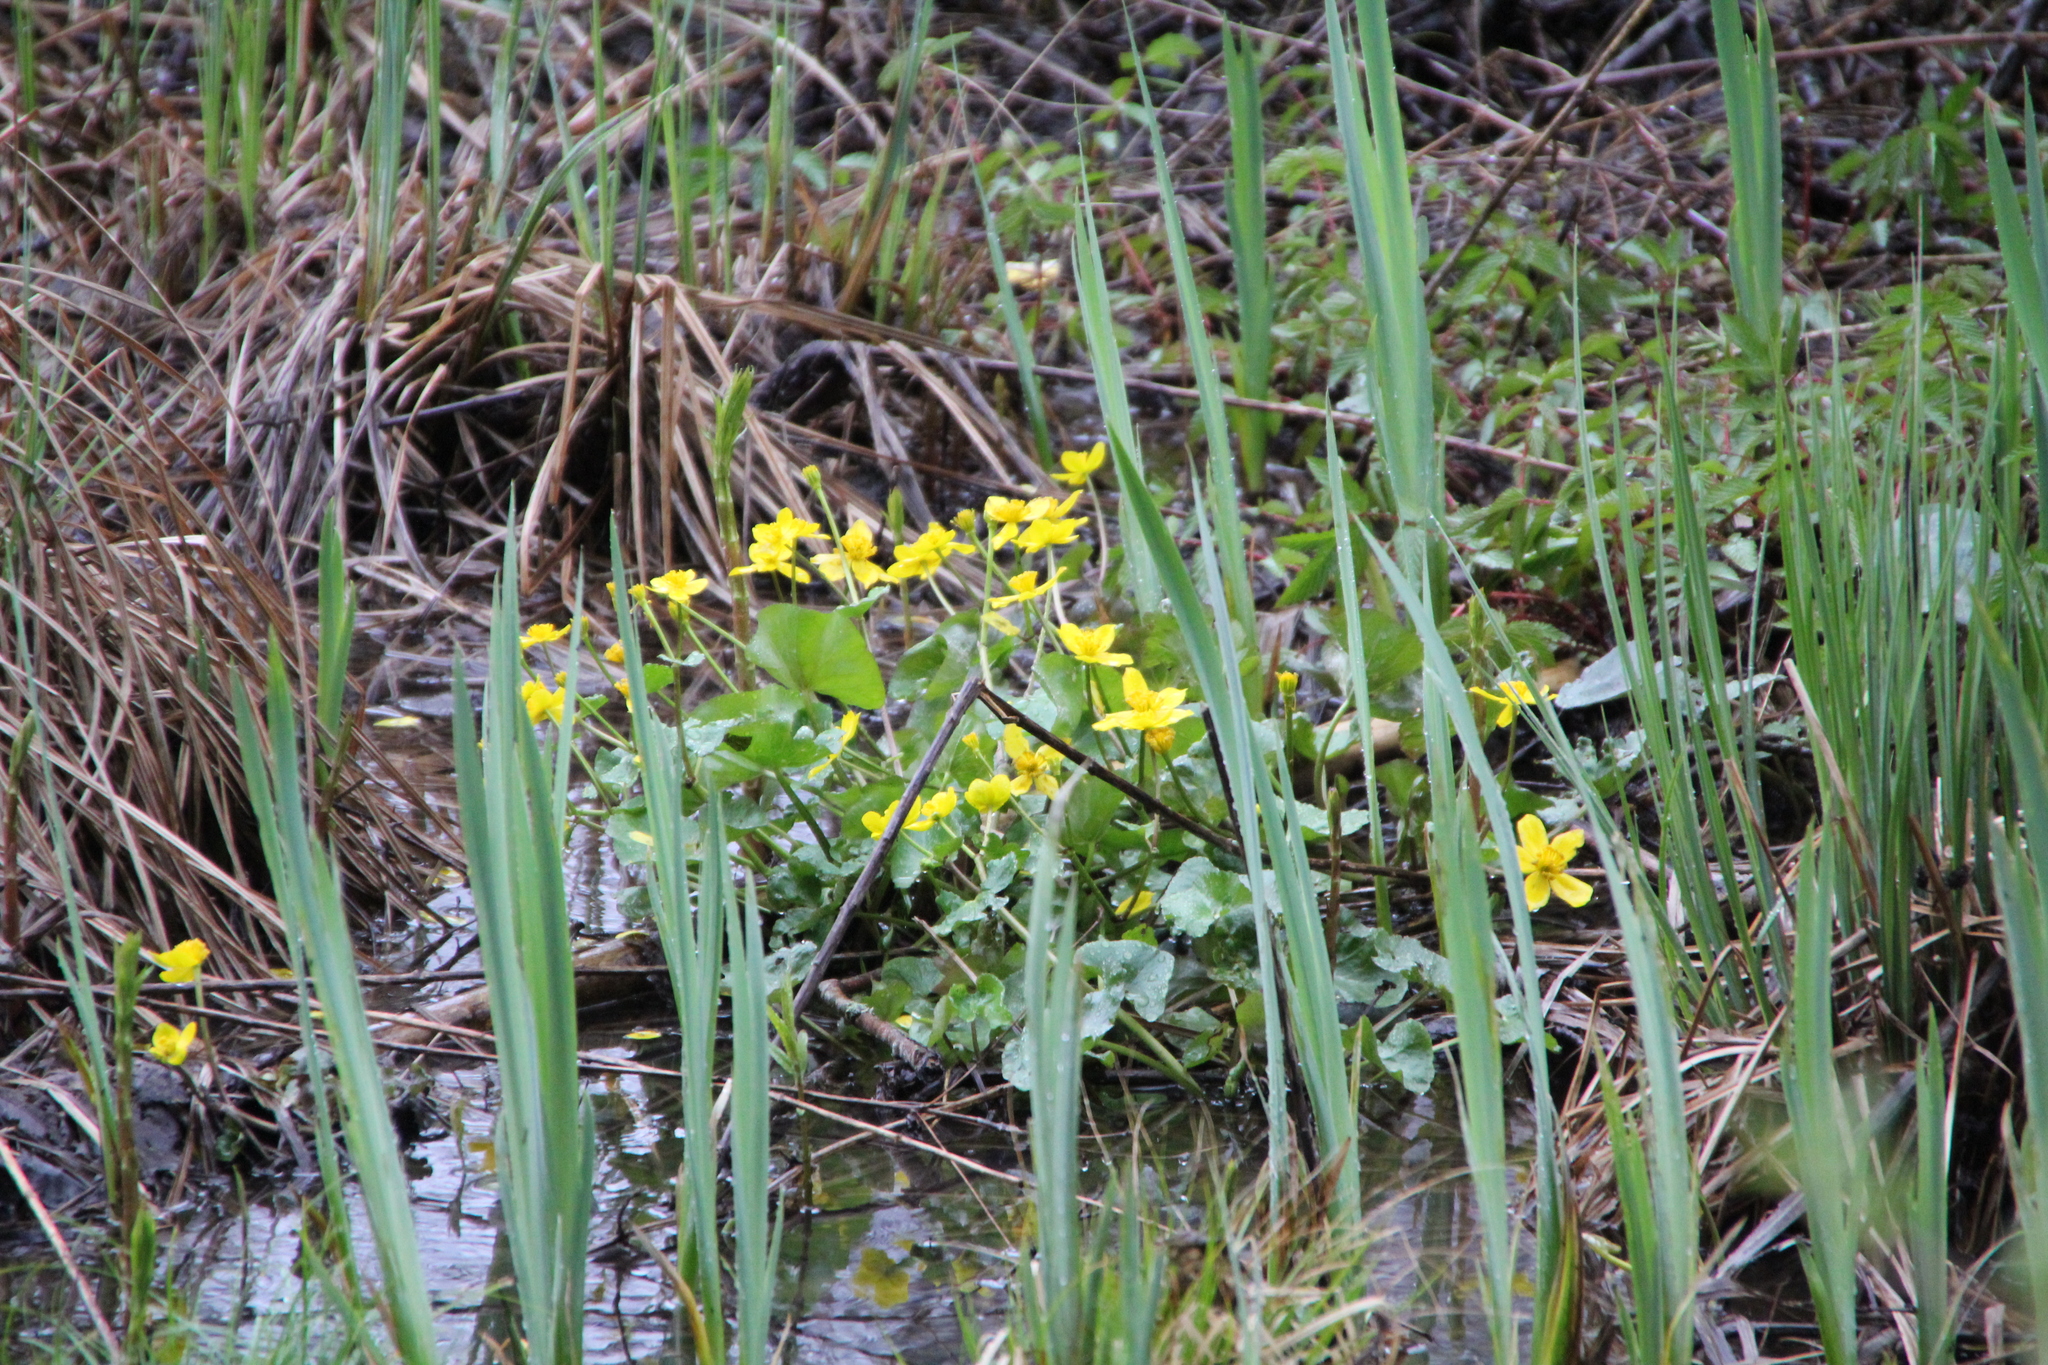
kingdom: Plantae
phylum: Tracheophyta
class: Magnoliopsida
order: Ranunculales
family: Ranunculaceae
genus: Caltha
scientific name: Caltha palustris
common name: Marsh marigold
